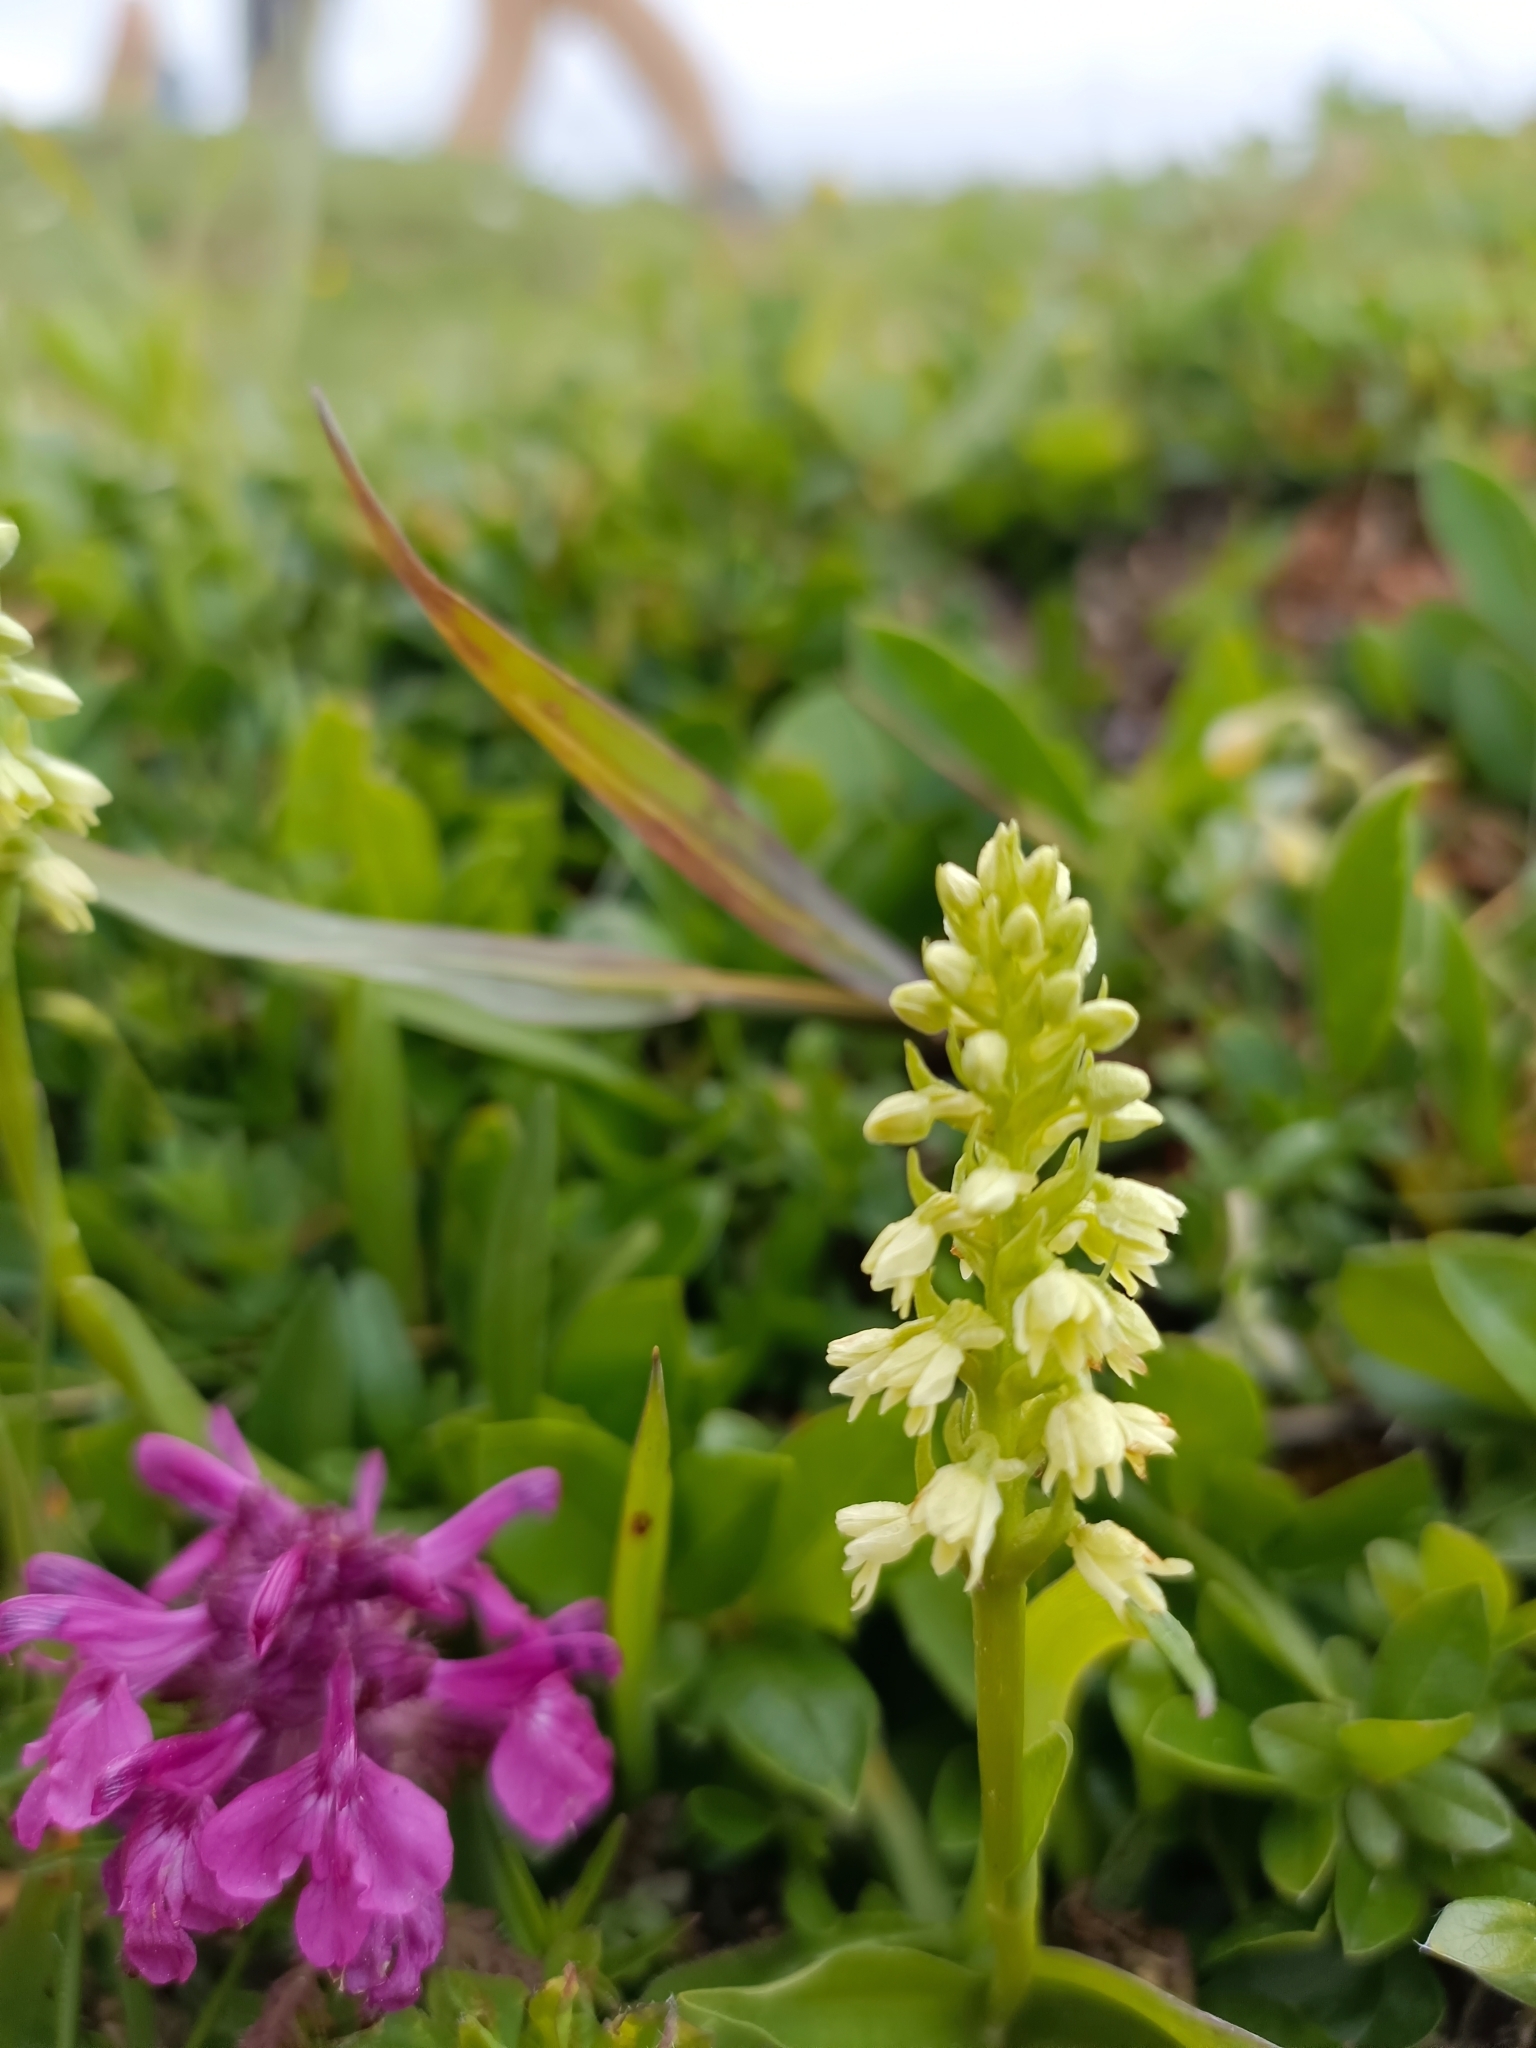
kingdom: Plantae
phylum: Tracheophyta
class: Liliopsida
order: Asparagales
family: Orchidaceae
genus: Pseudorchis
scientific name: Pseudorchis albida
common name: Small-white orchid
